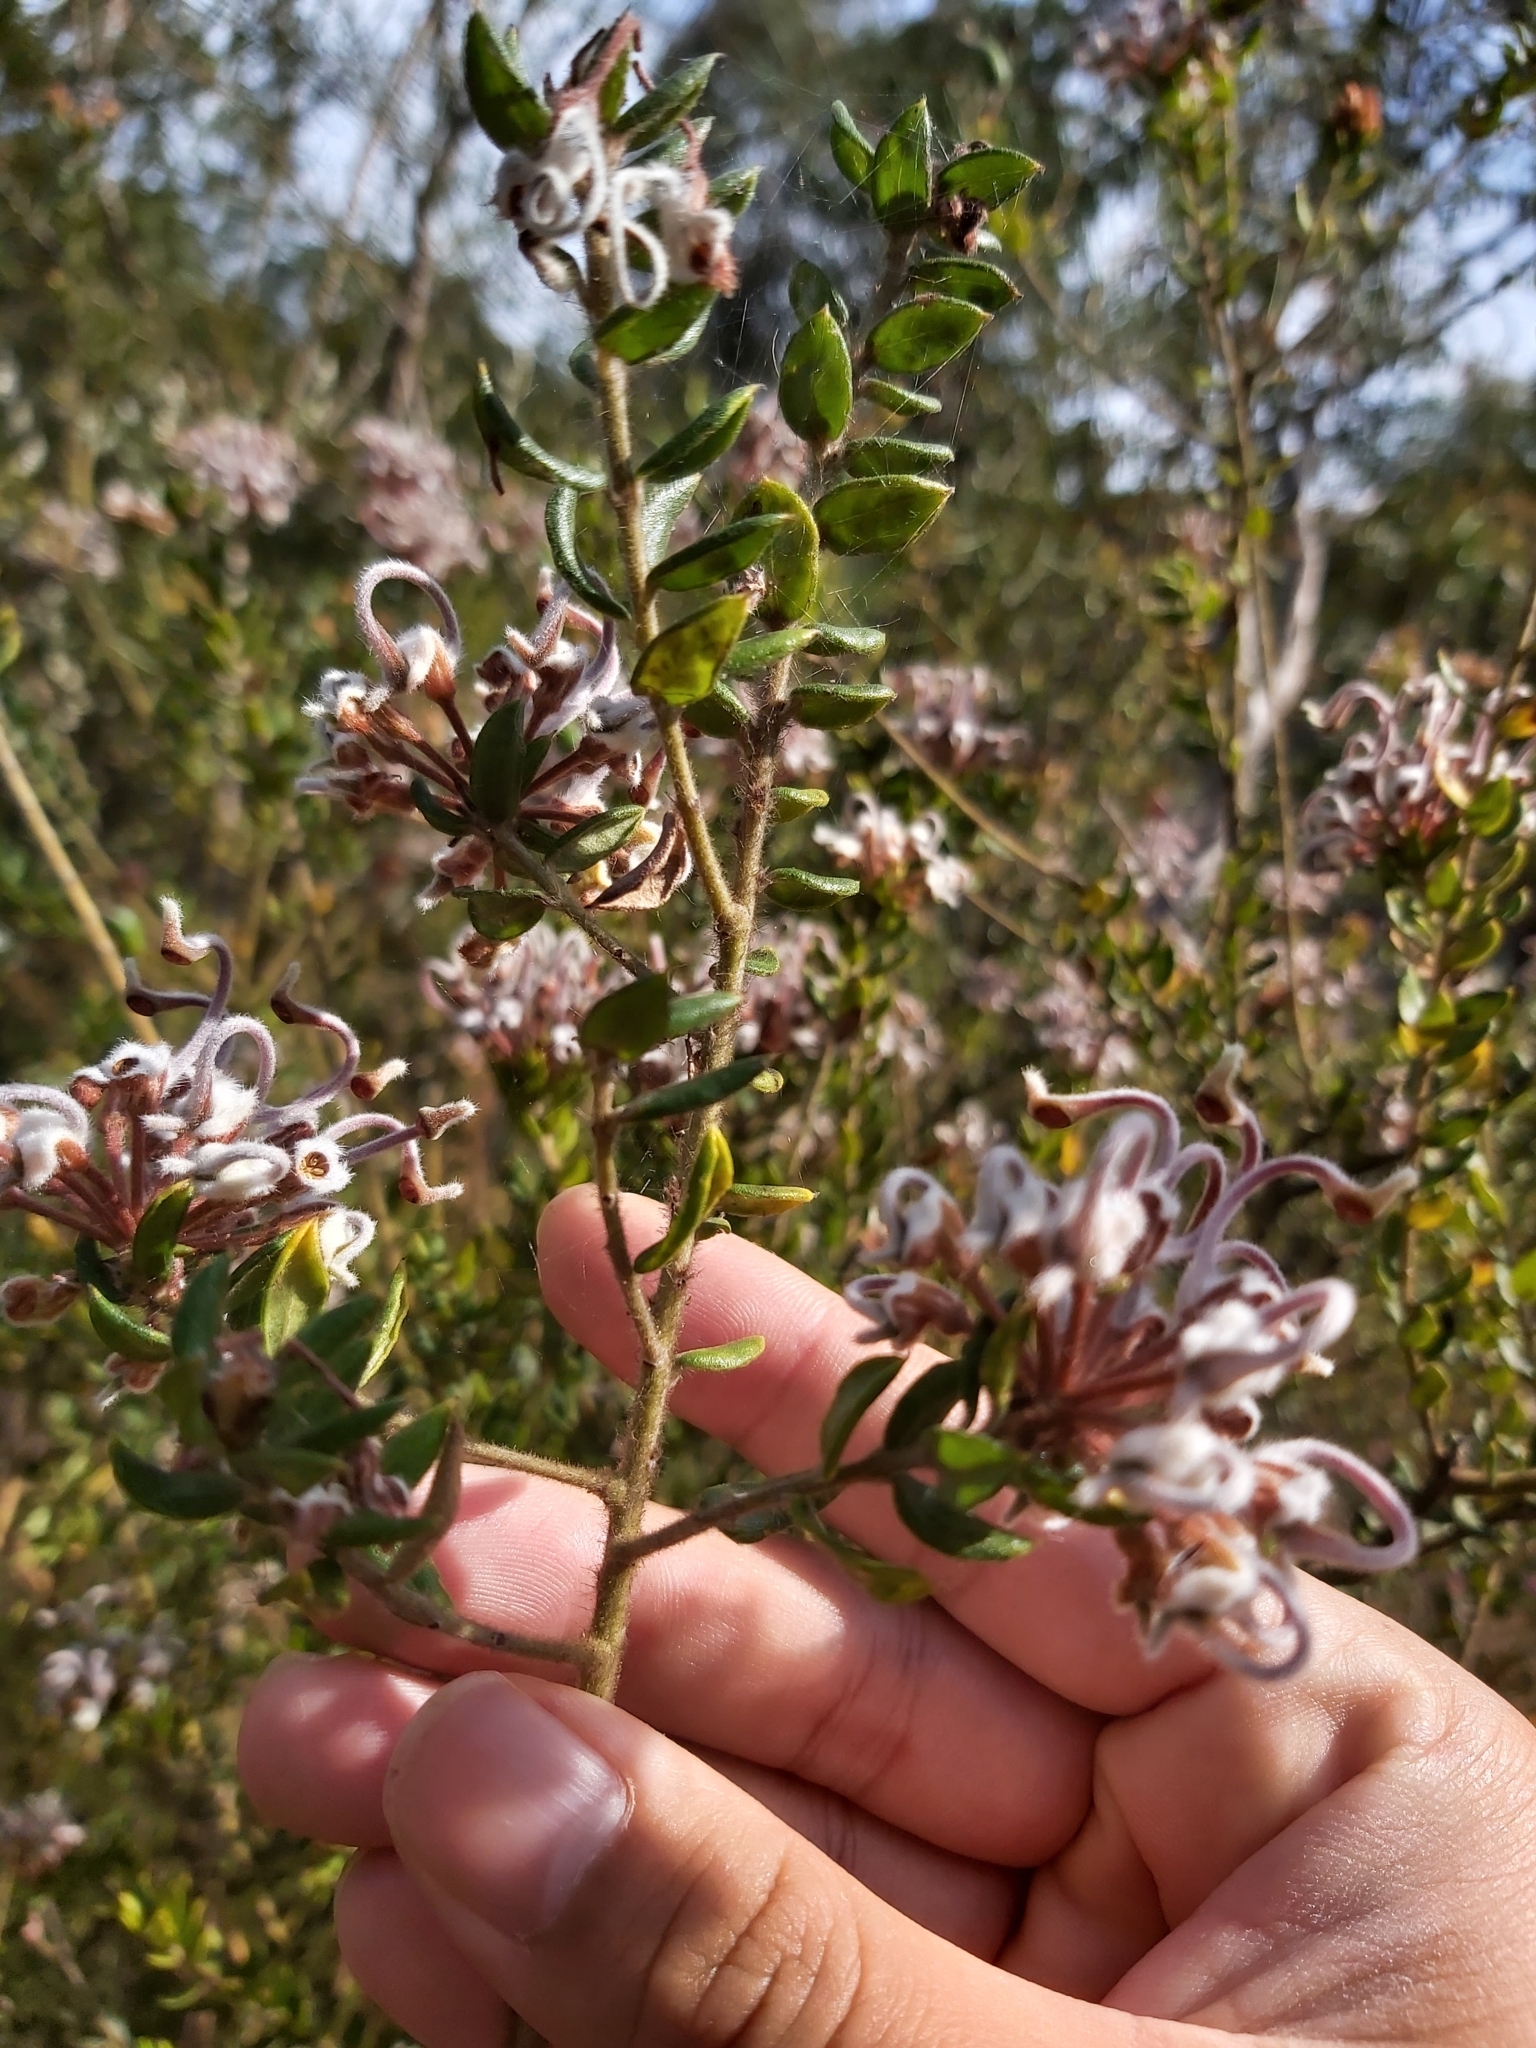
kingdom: Plantae
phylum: Tracheophyta
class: Magnoliopsida
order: Proteales
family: Proteaceae
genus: Grevillea
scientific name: Grevillea buxifolia
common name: Grey spiderflower
